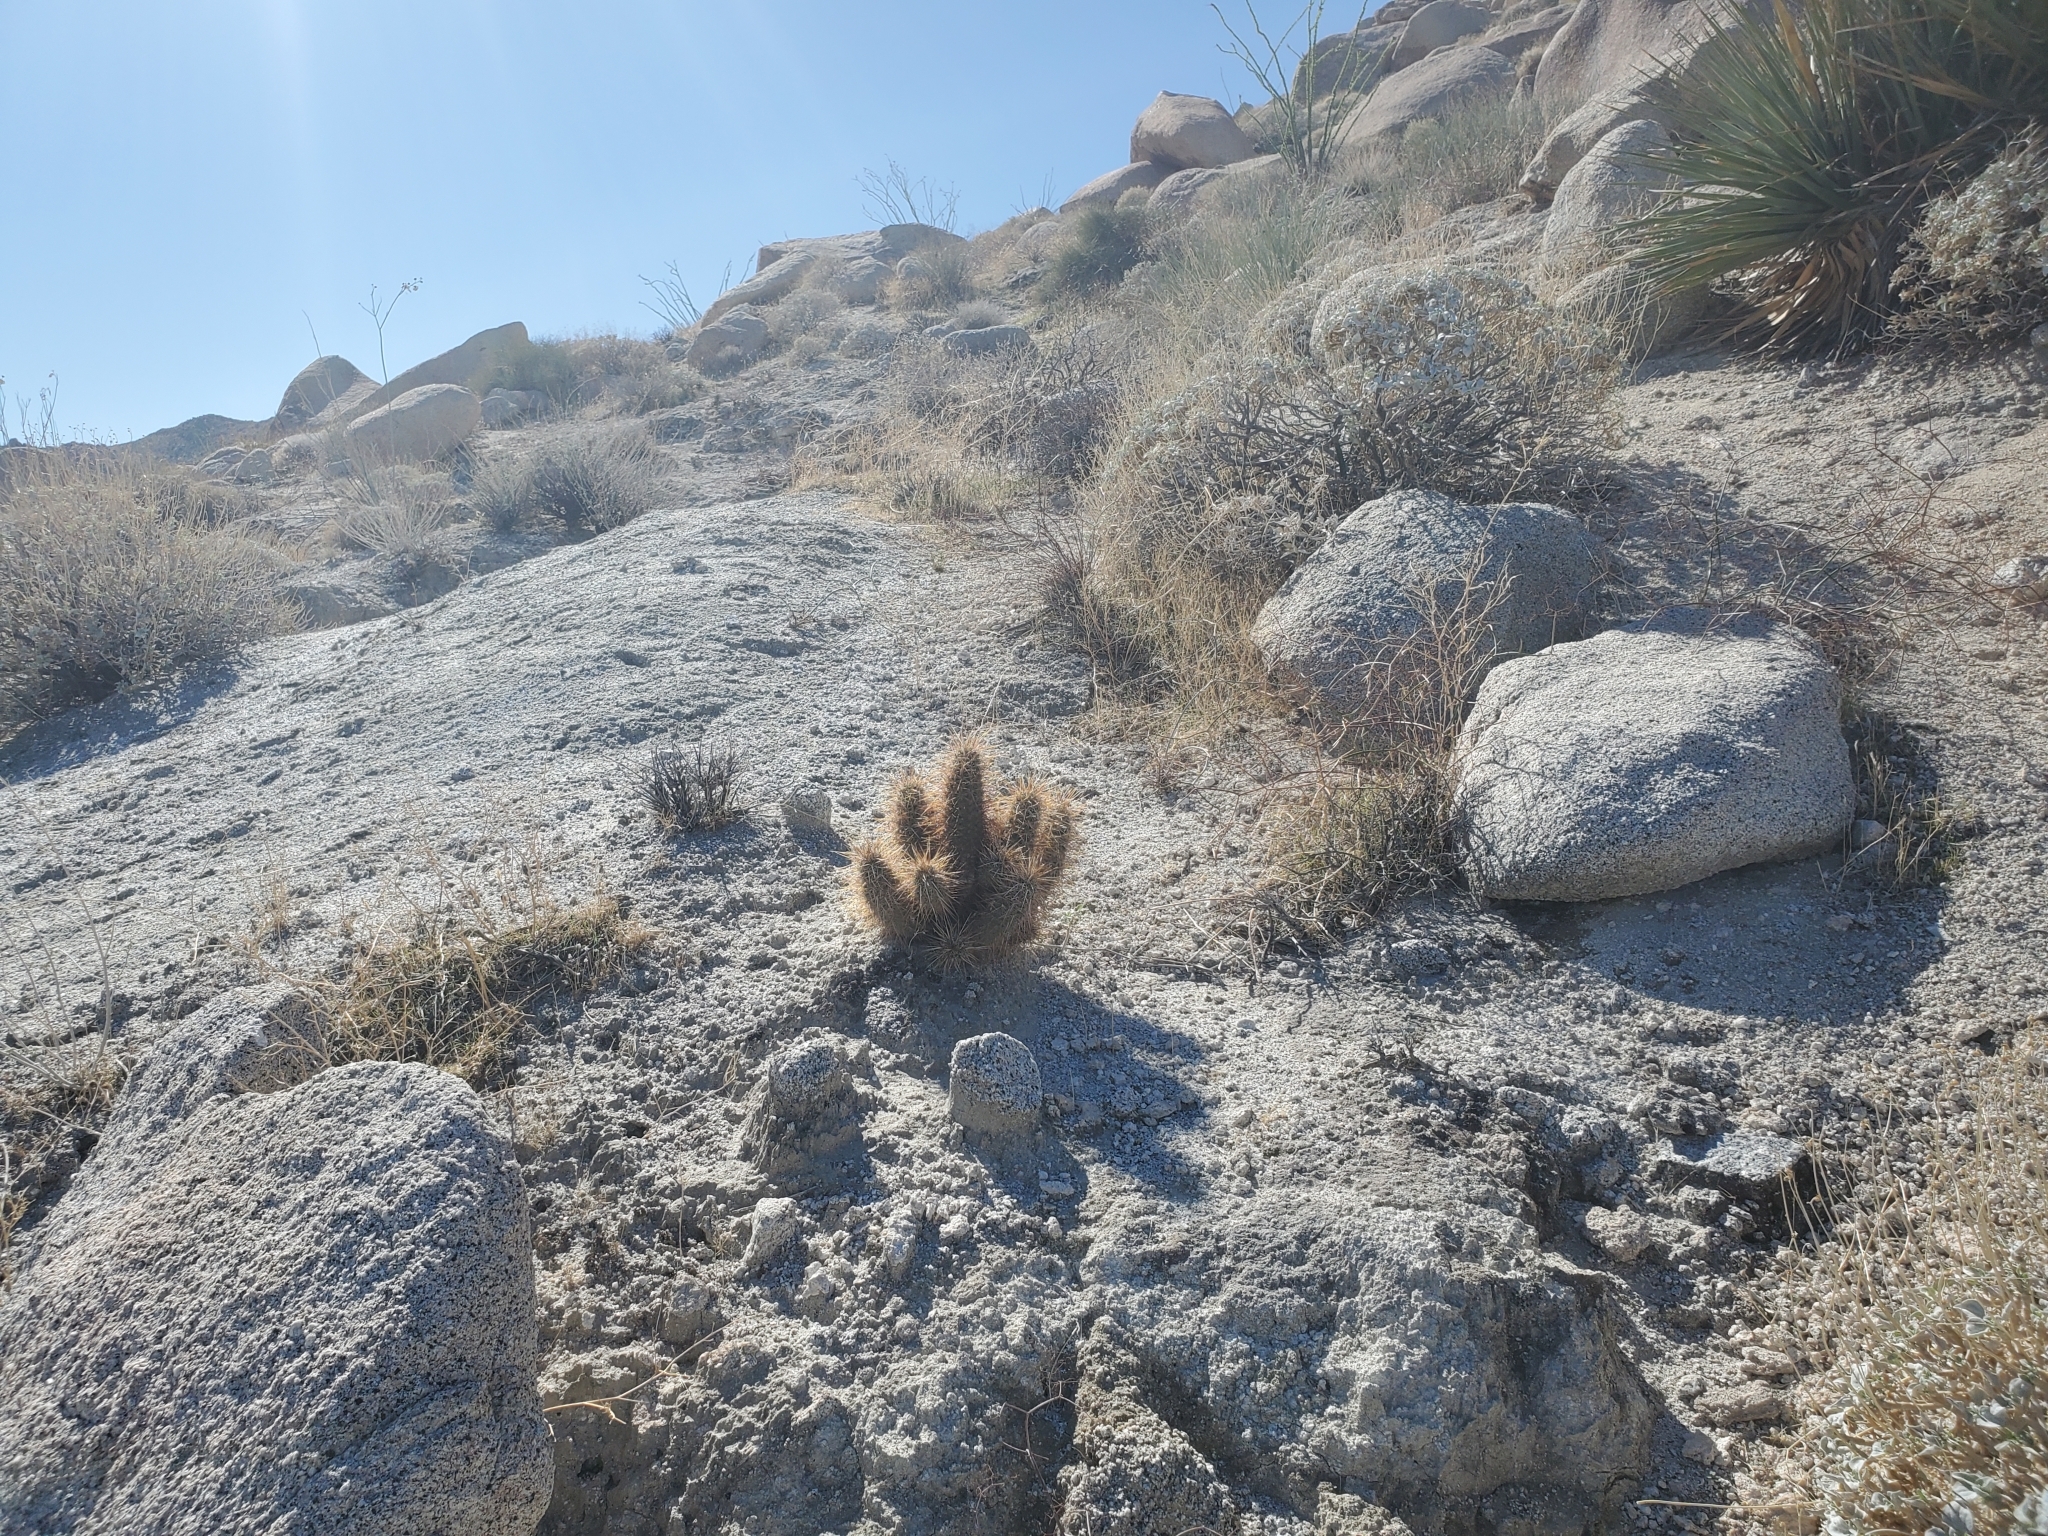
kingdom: Plantae
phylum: Tracheophyta
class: Magnoliopsida
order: Caryophyllales
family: Cactaceae
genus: Echinocereus
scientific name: Echinocereus engelmannii
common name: Engelmann's hedgehog cactus
